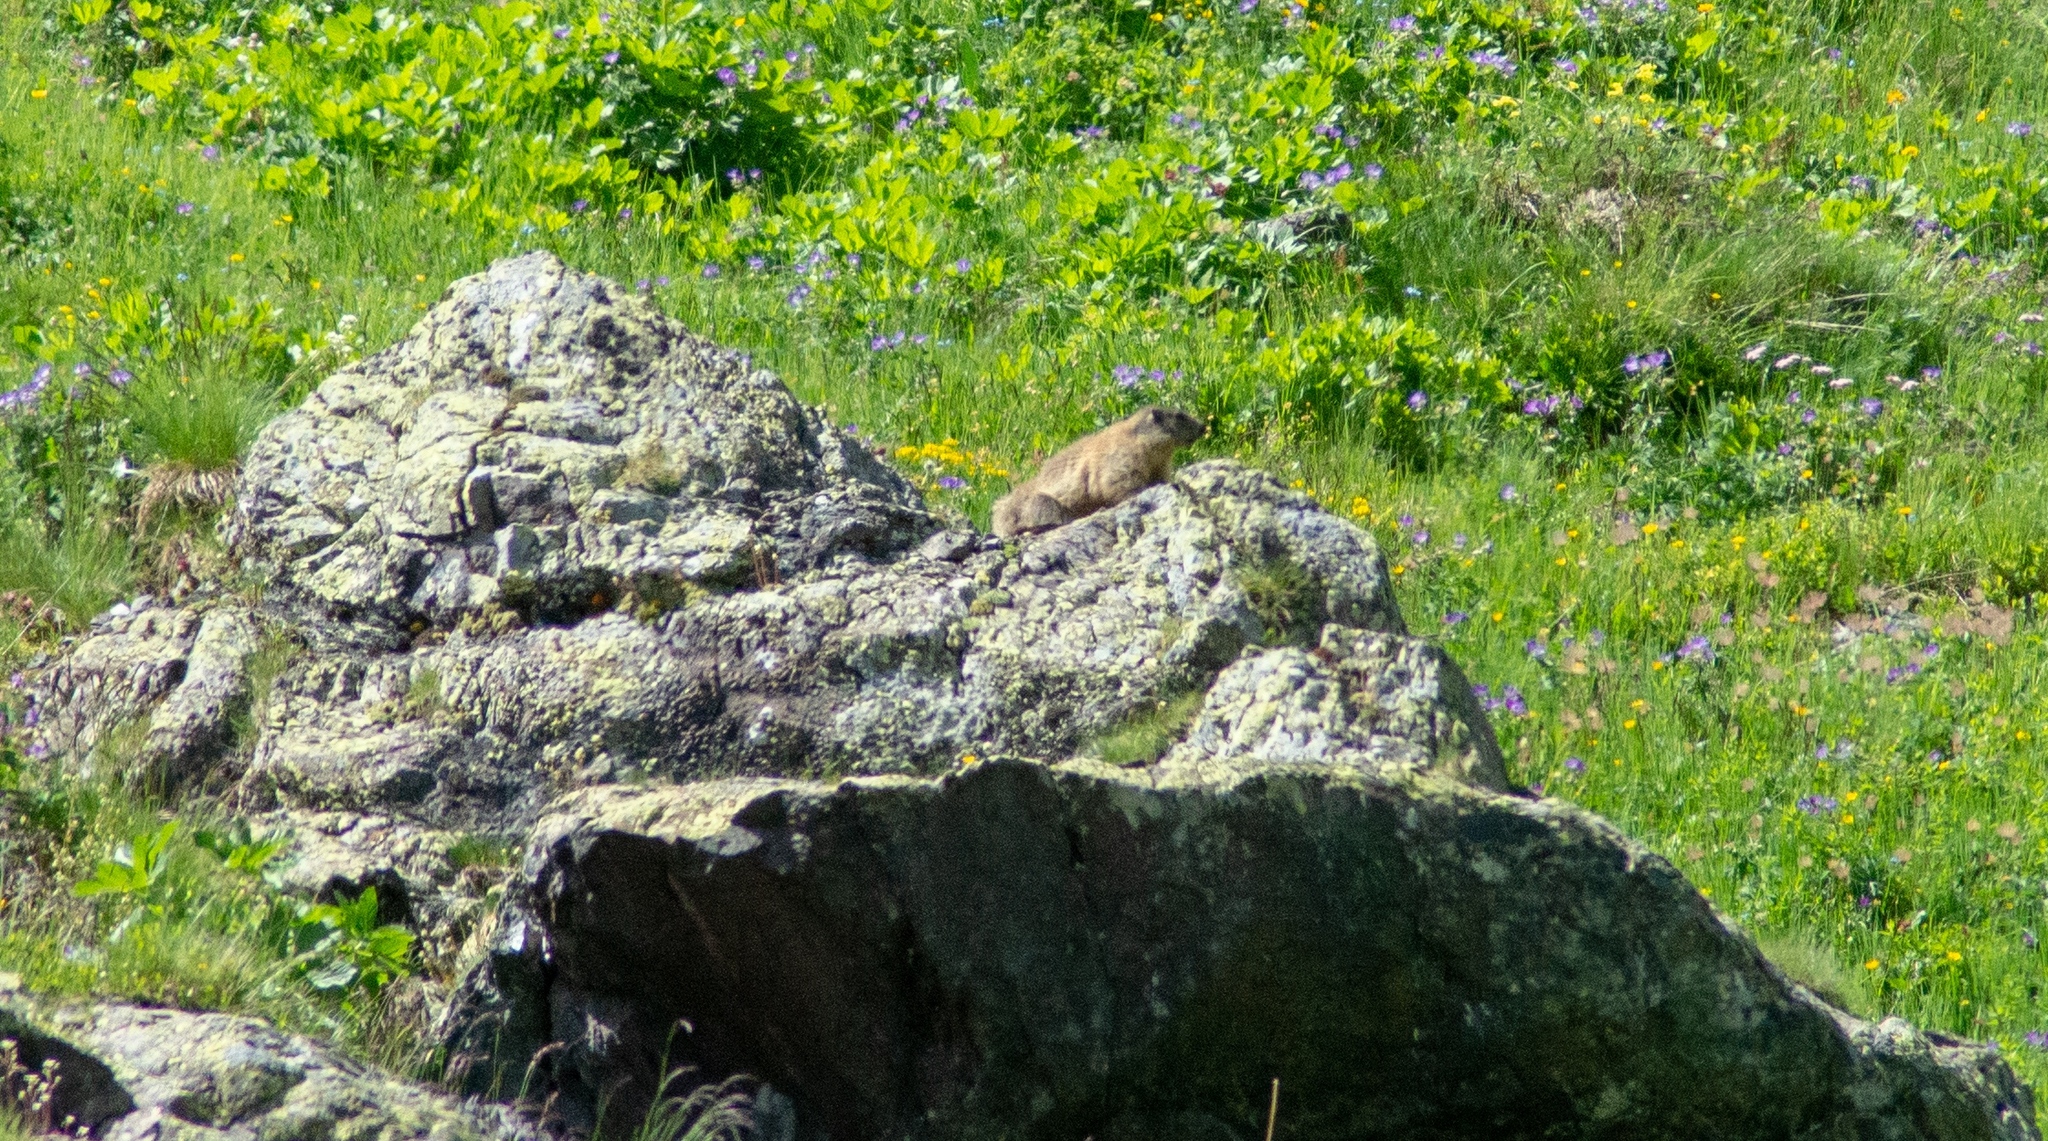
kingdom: Animalia
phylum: Chordata
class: Mammalia
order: Rodentia
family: Sciuridae
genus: Marmota
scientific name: Marmota marmota
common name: Alpine marmot
